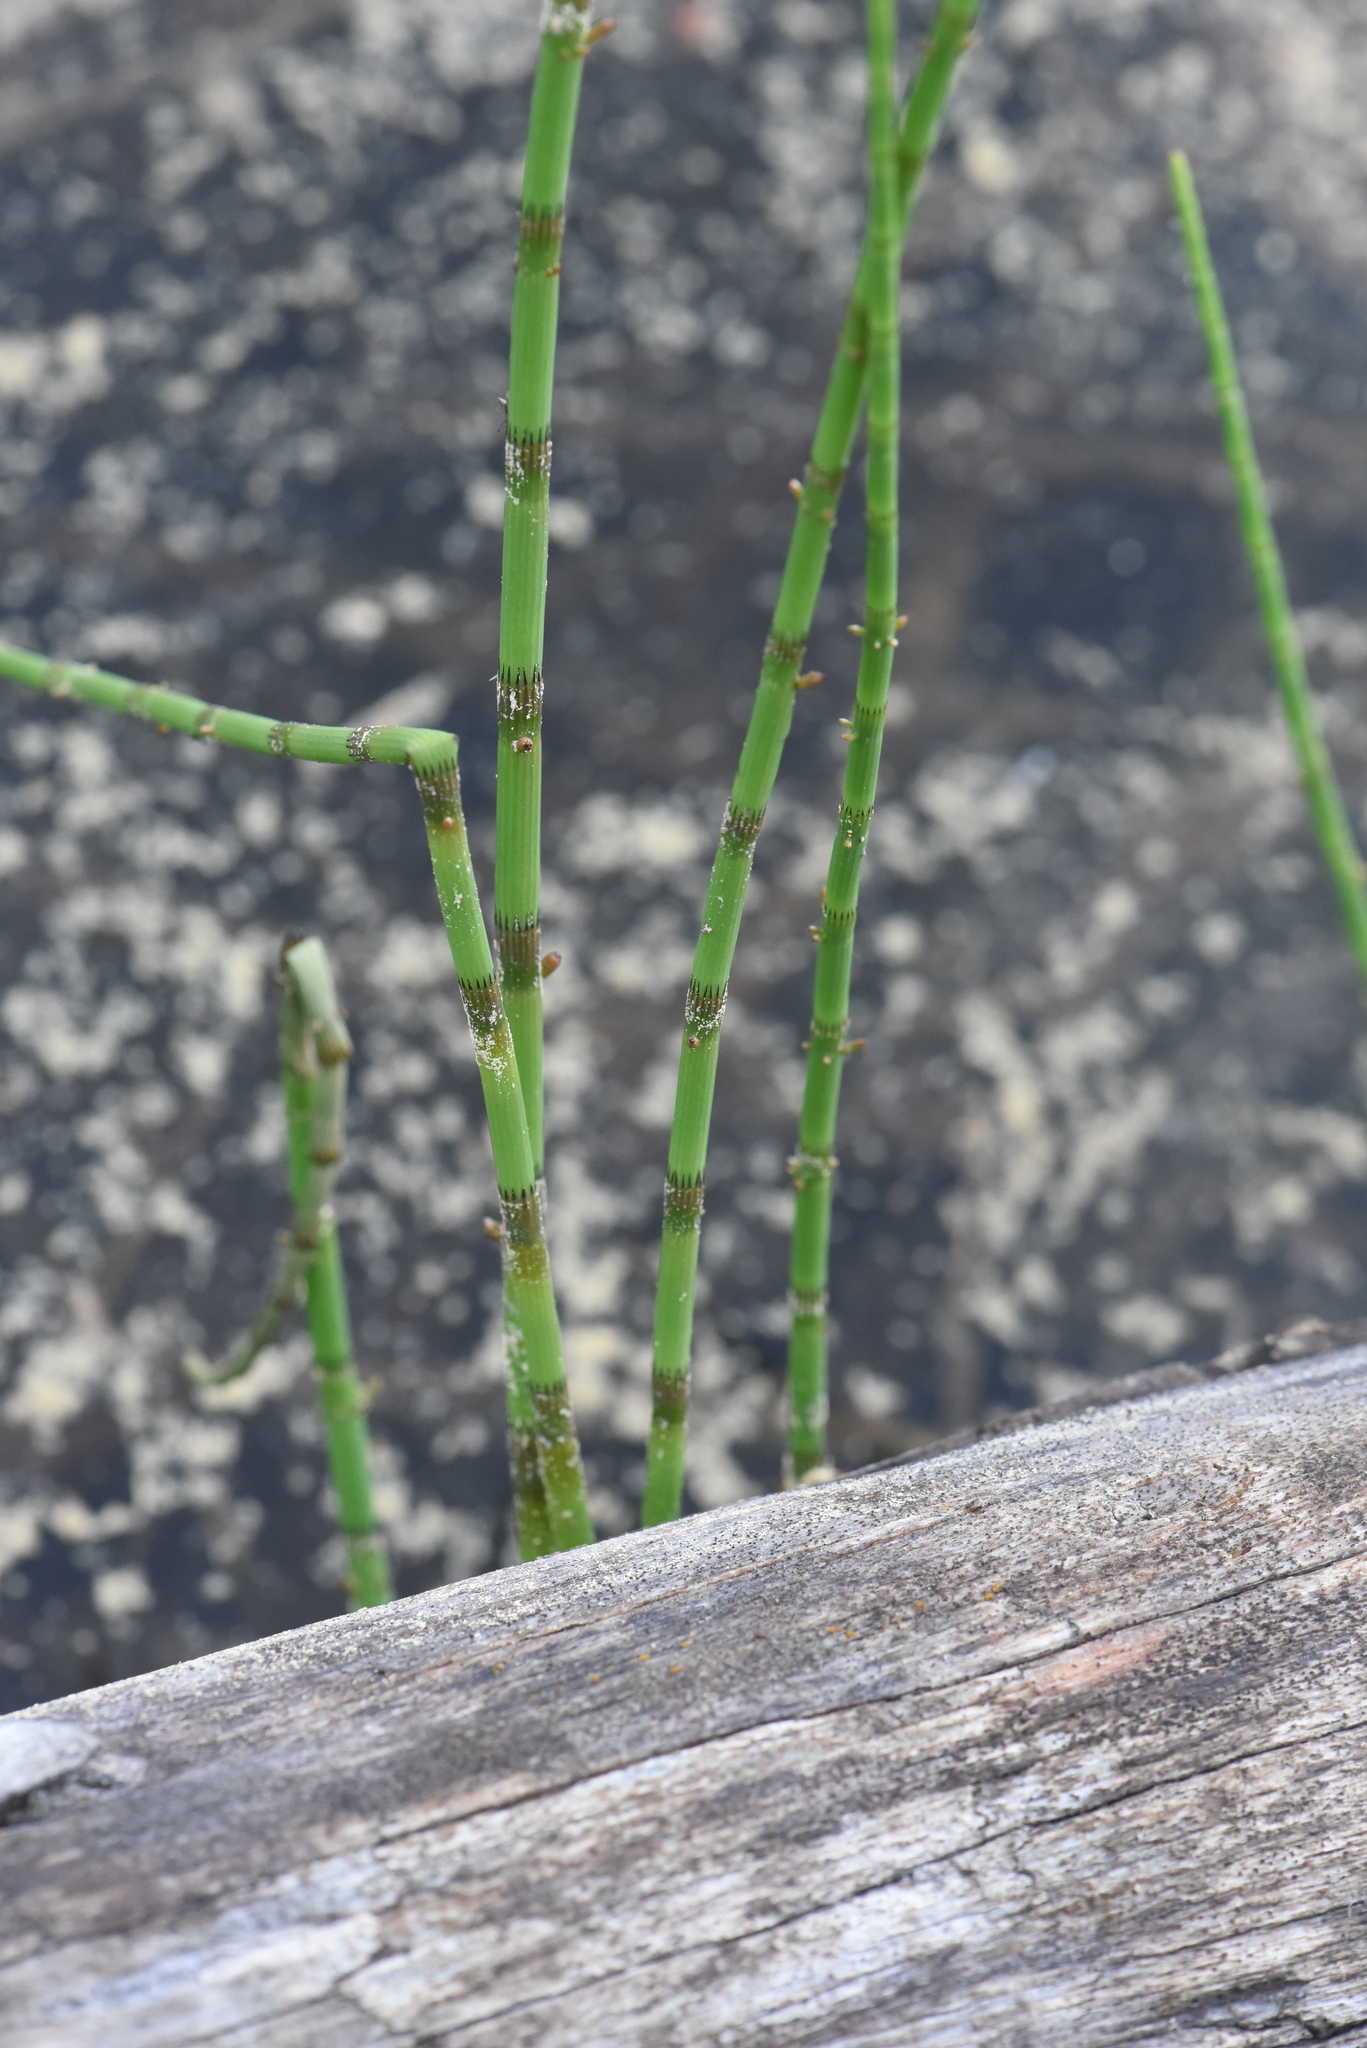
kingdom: Plantae
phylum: Tracheophyta
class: Polypodiopsida
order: Equisetales
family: Equisetaceae
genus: Equisetum
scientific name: Equisetum fluviatile
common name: Water horsetail
